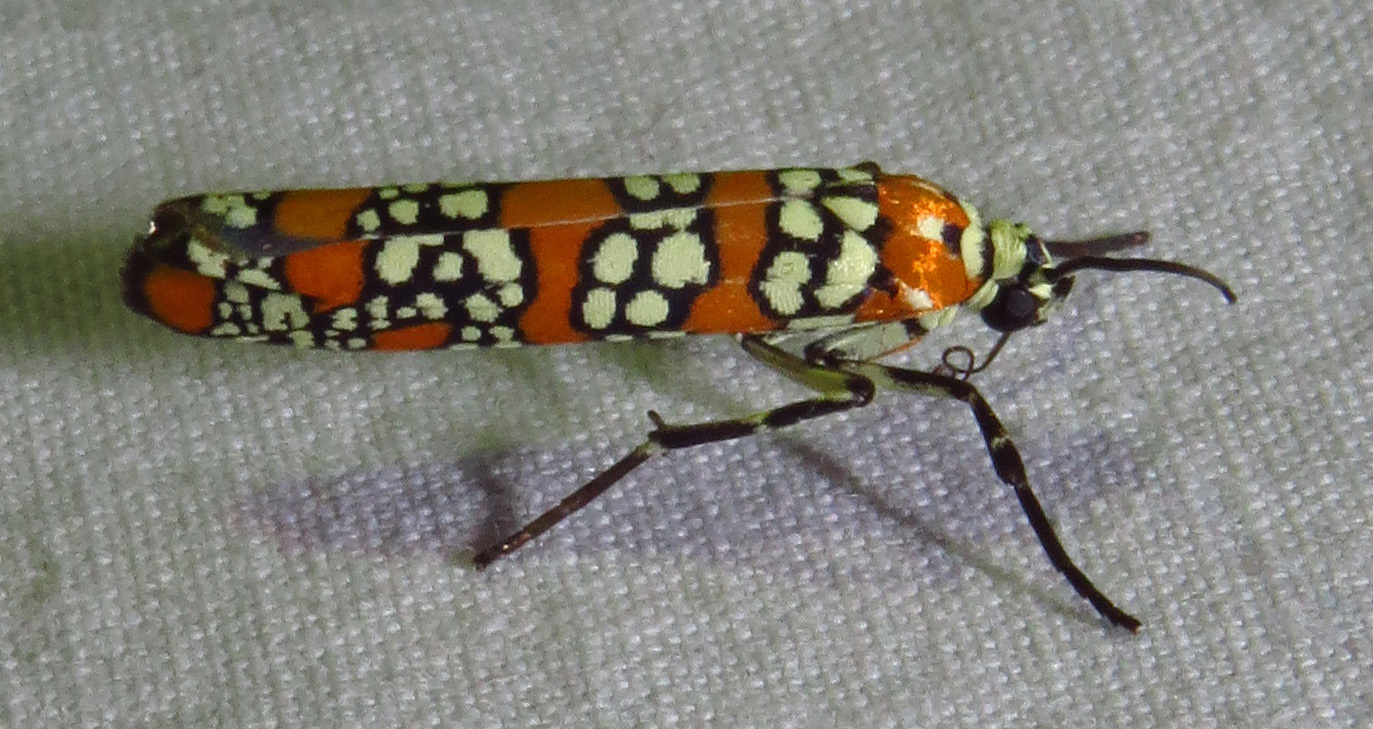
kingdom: Animalia
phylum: Arthropoda
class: Insecta
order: Lepidoptera
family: Attevidae
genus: Atteva
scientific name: Atteva punctella
